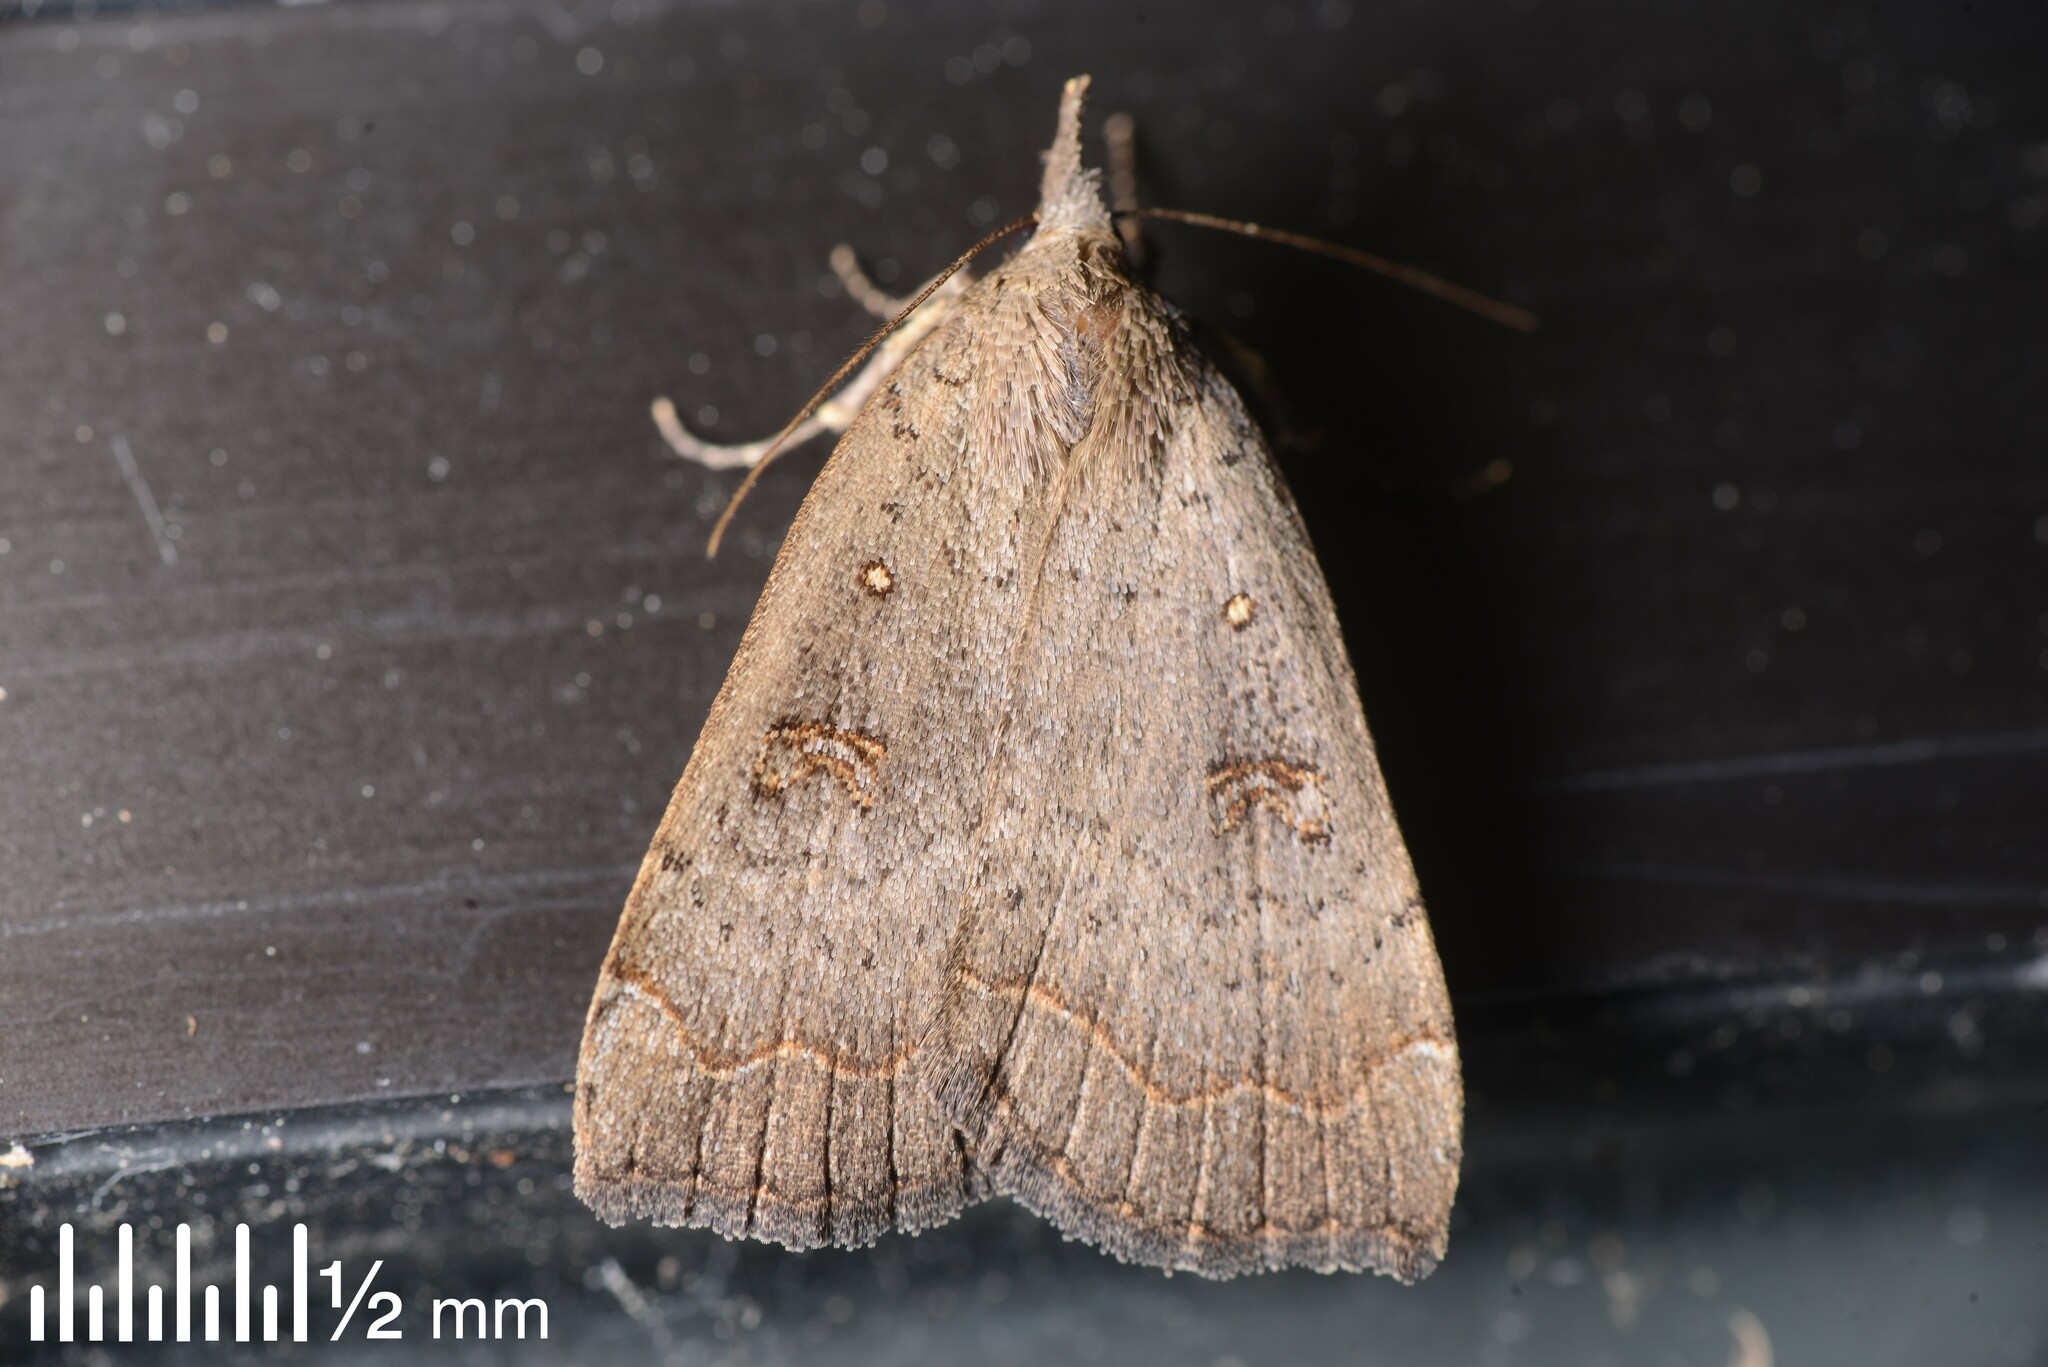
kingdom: Animalia
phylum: Arthropoda
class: Insecta
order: Lepidoptera
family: Erebidae
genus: Rhapsa
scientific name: Rhapsa scotosialis
